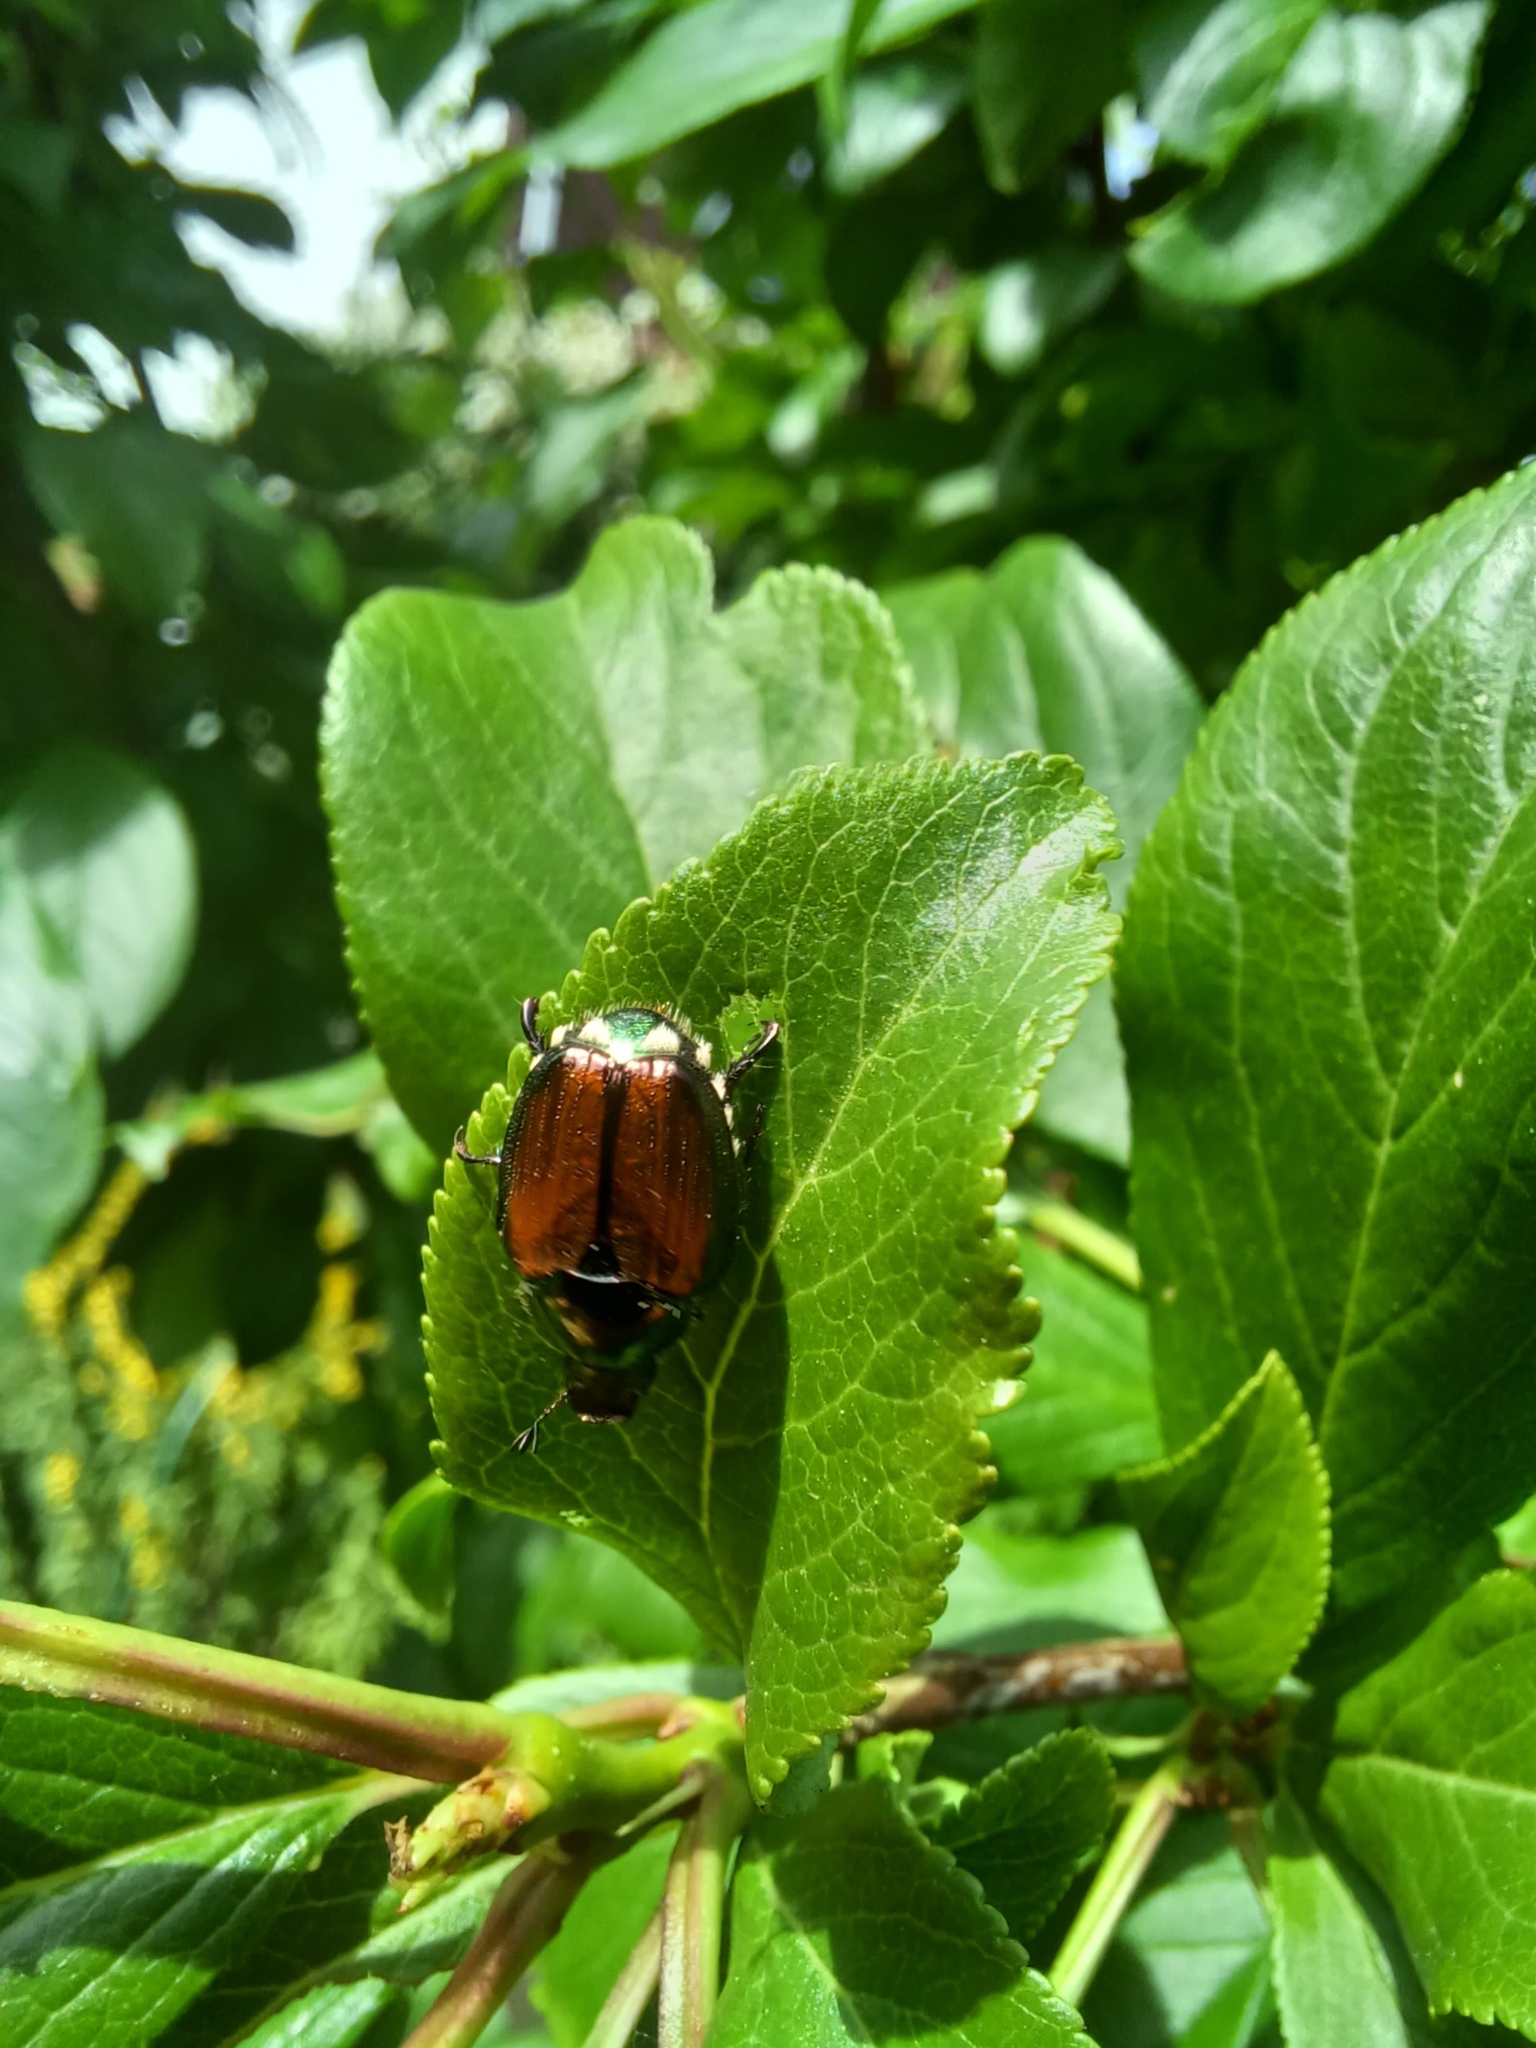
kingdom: Animalia
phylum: Arthropoda
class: Insecta
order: Coleoptera
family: Scarabaeidae
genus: Popillia
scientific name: Popillia japonica
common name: Japanese beetle
